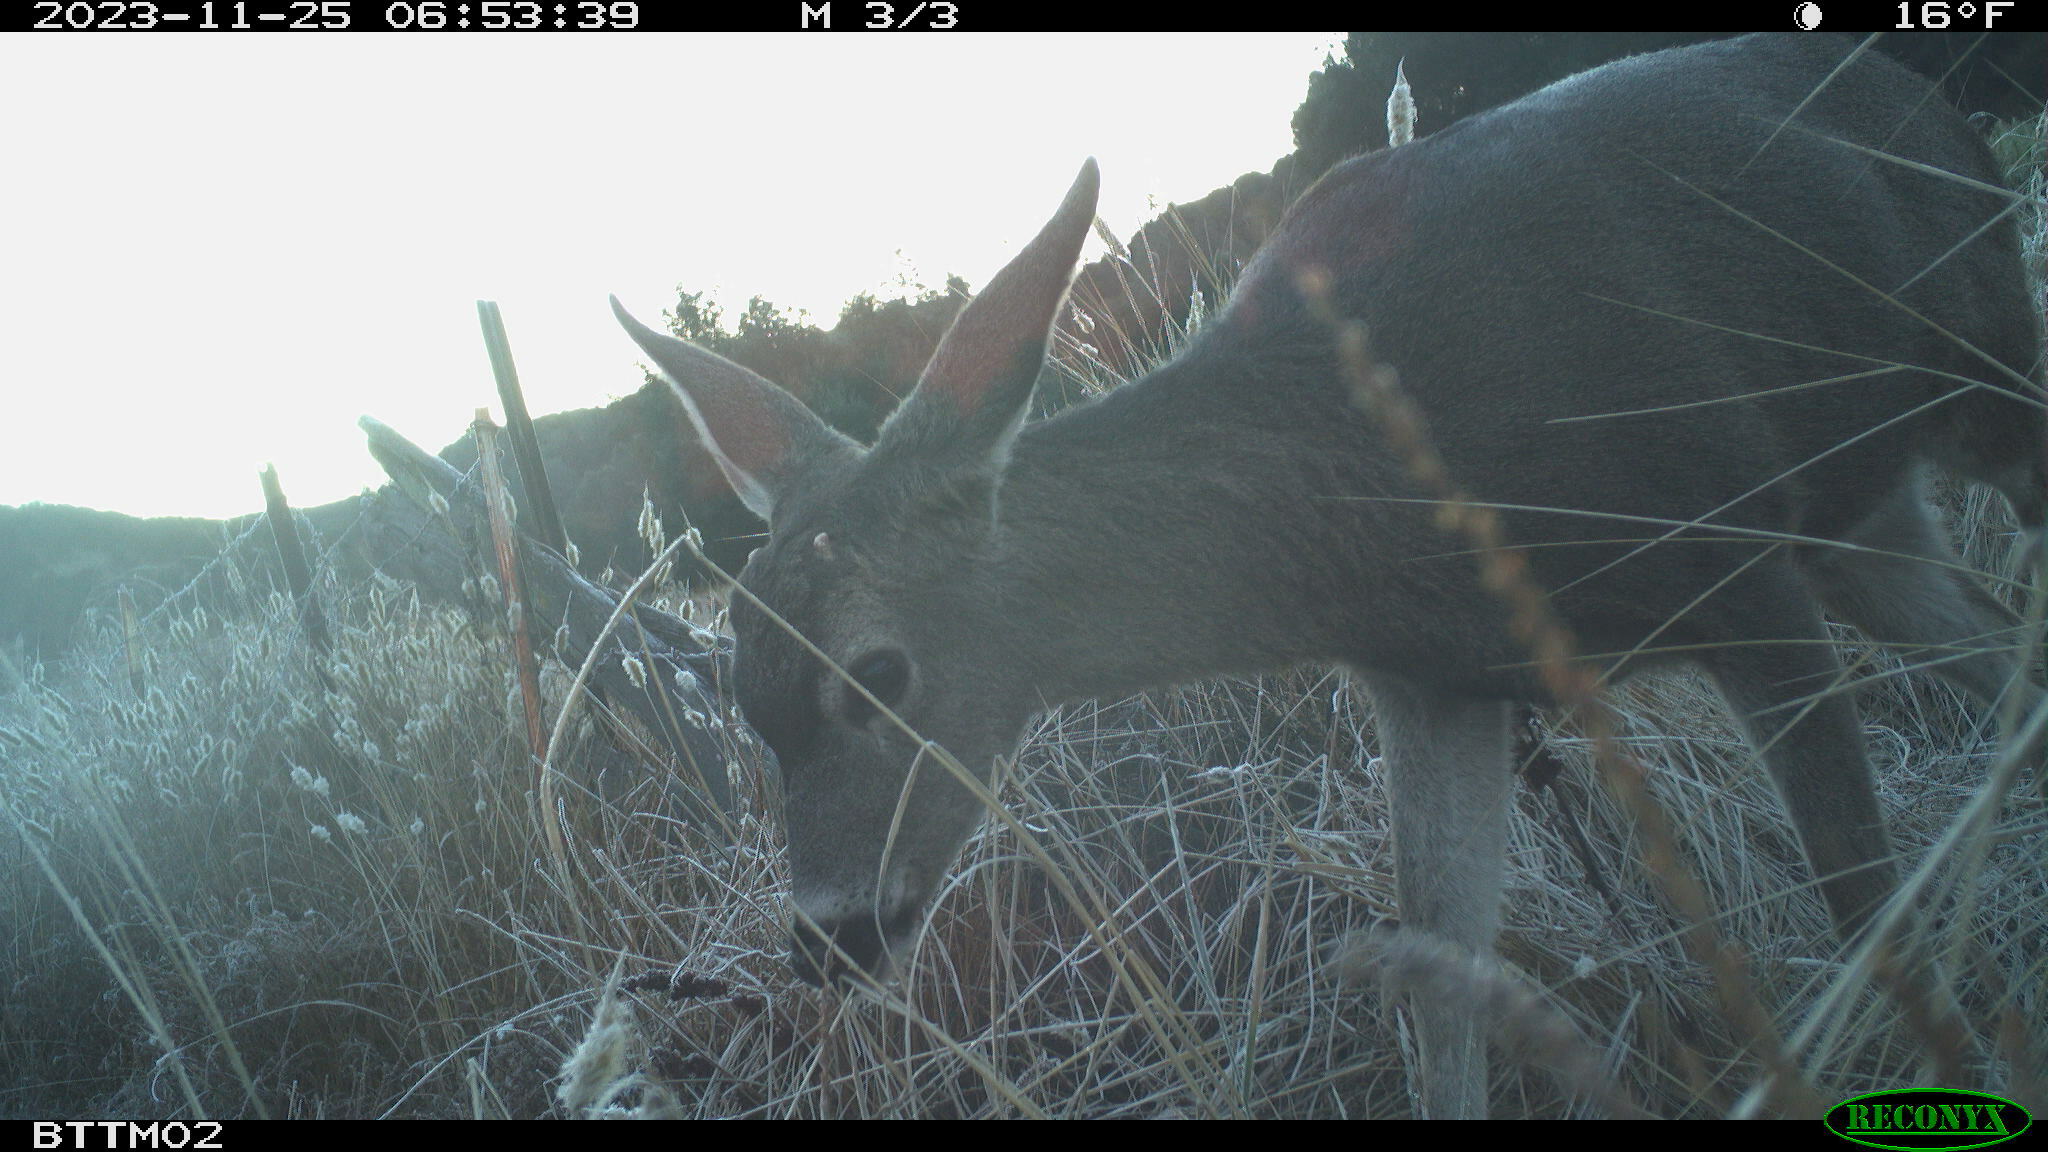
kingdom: Animalia
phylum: Chordata
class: Mammalia
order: Artiodactyla
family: Cervidae
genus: Odocoileus
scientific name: Odocoileus hemionus
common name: Mule deer
